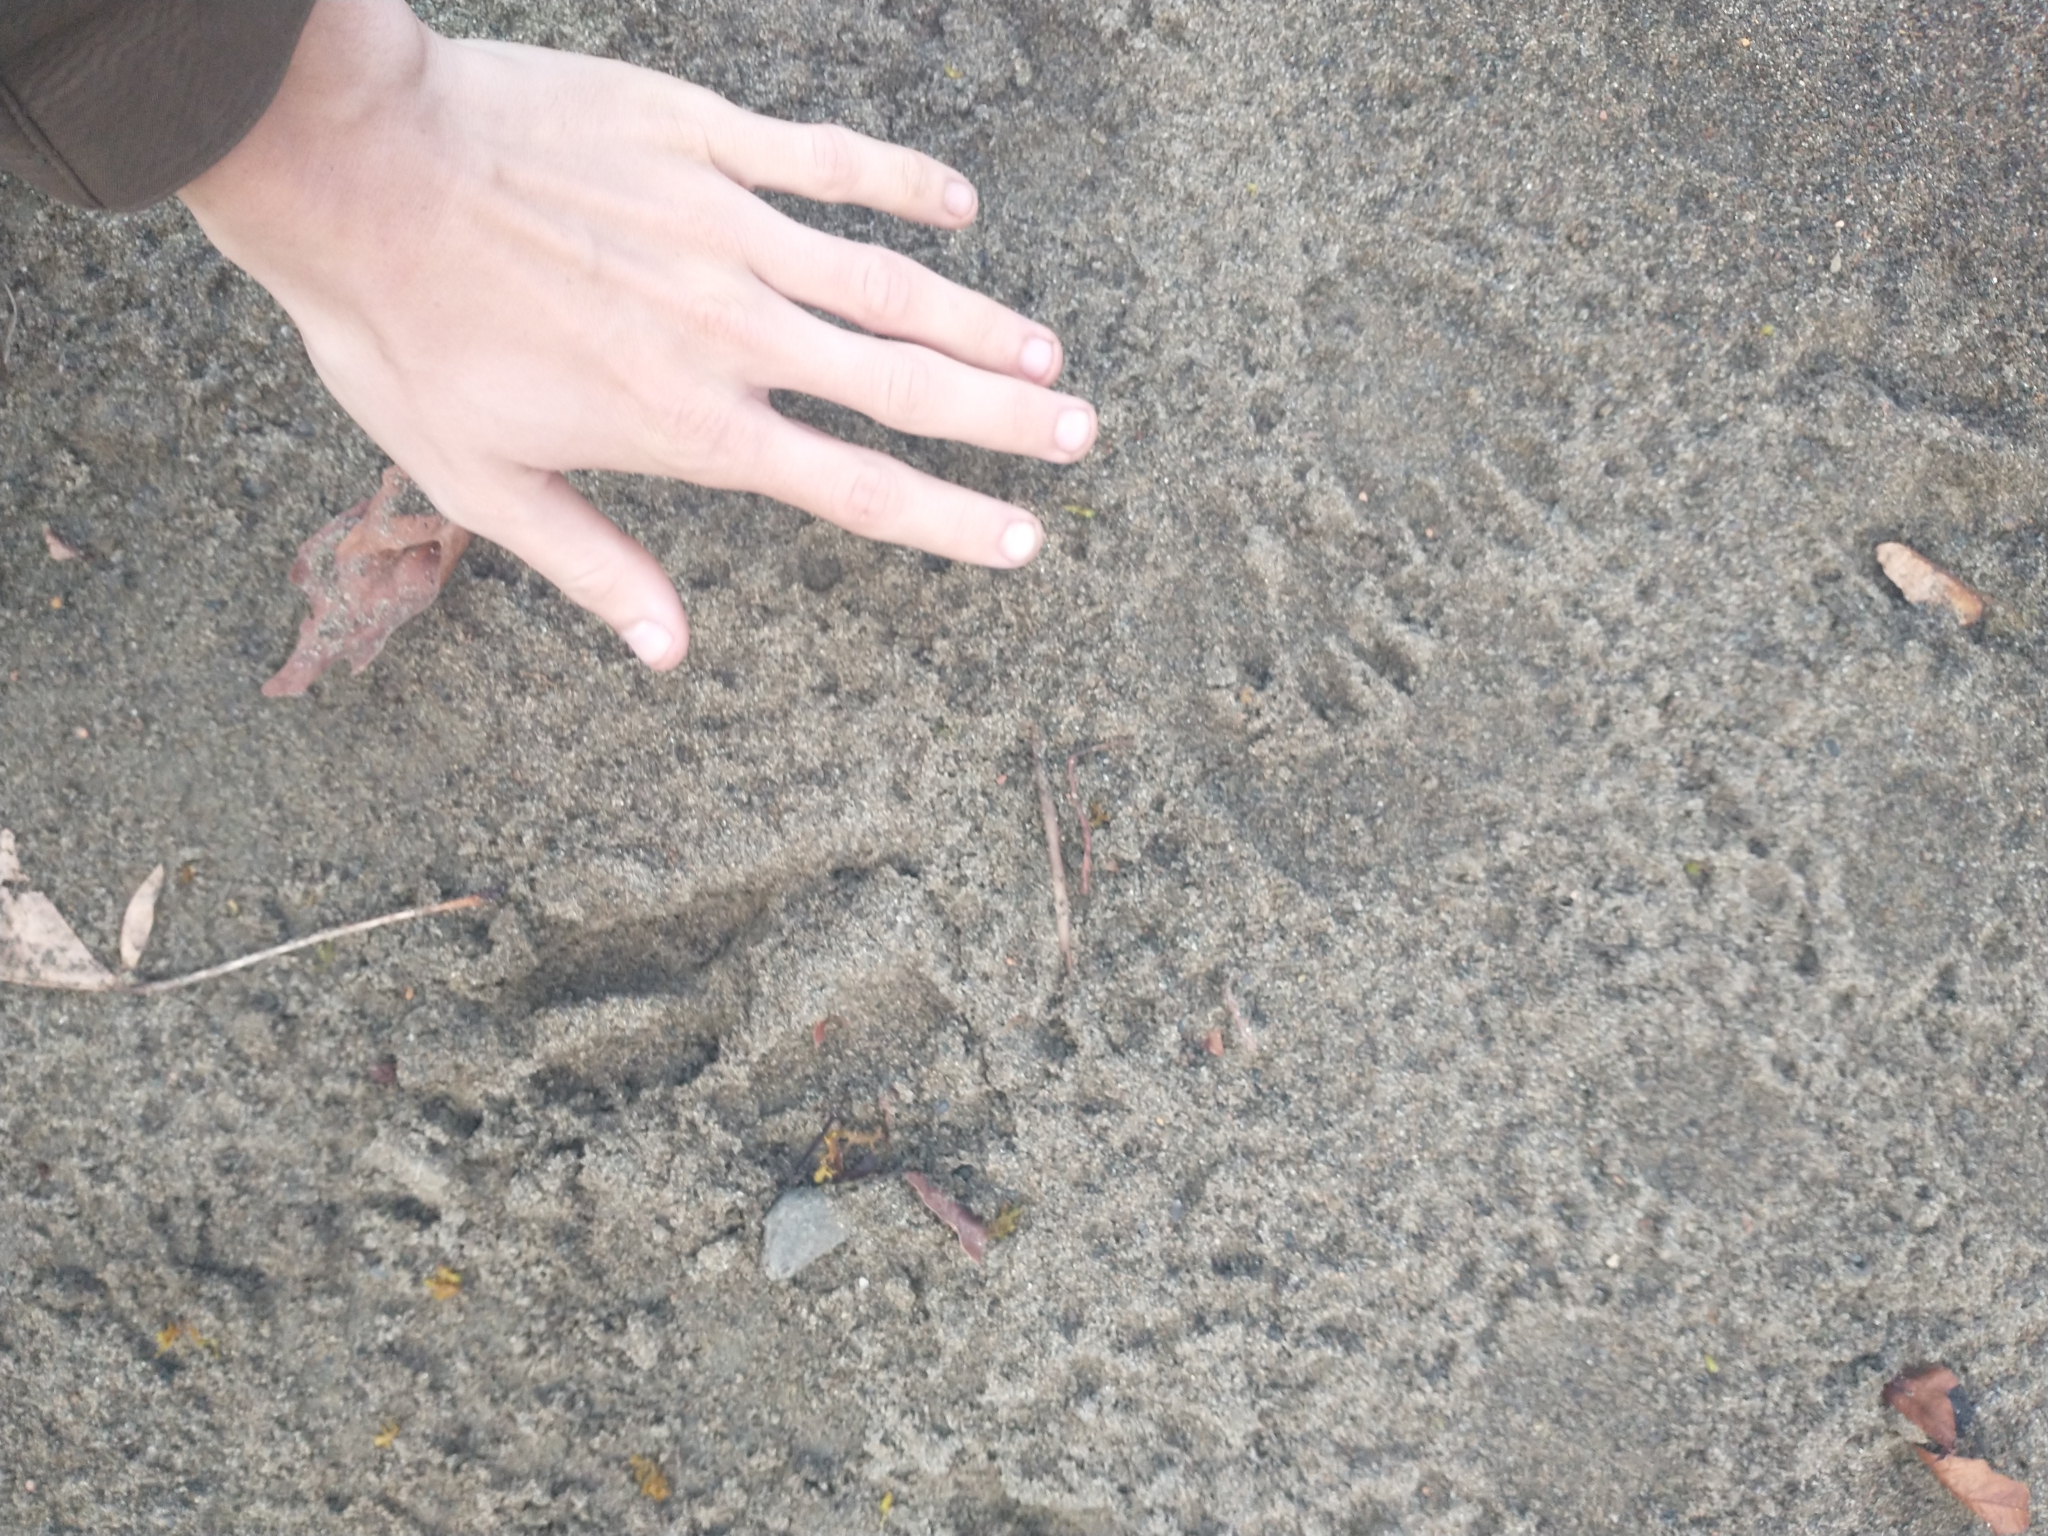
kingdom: Animalia
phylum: Chordata
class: Mammalia
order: Artiodactyla
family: Cervidae
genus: Odocoileus
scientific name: Odocoileus hemionus
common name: Mule deer
